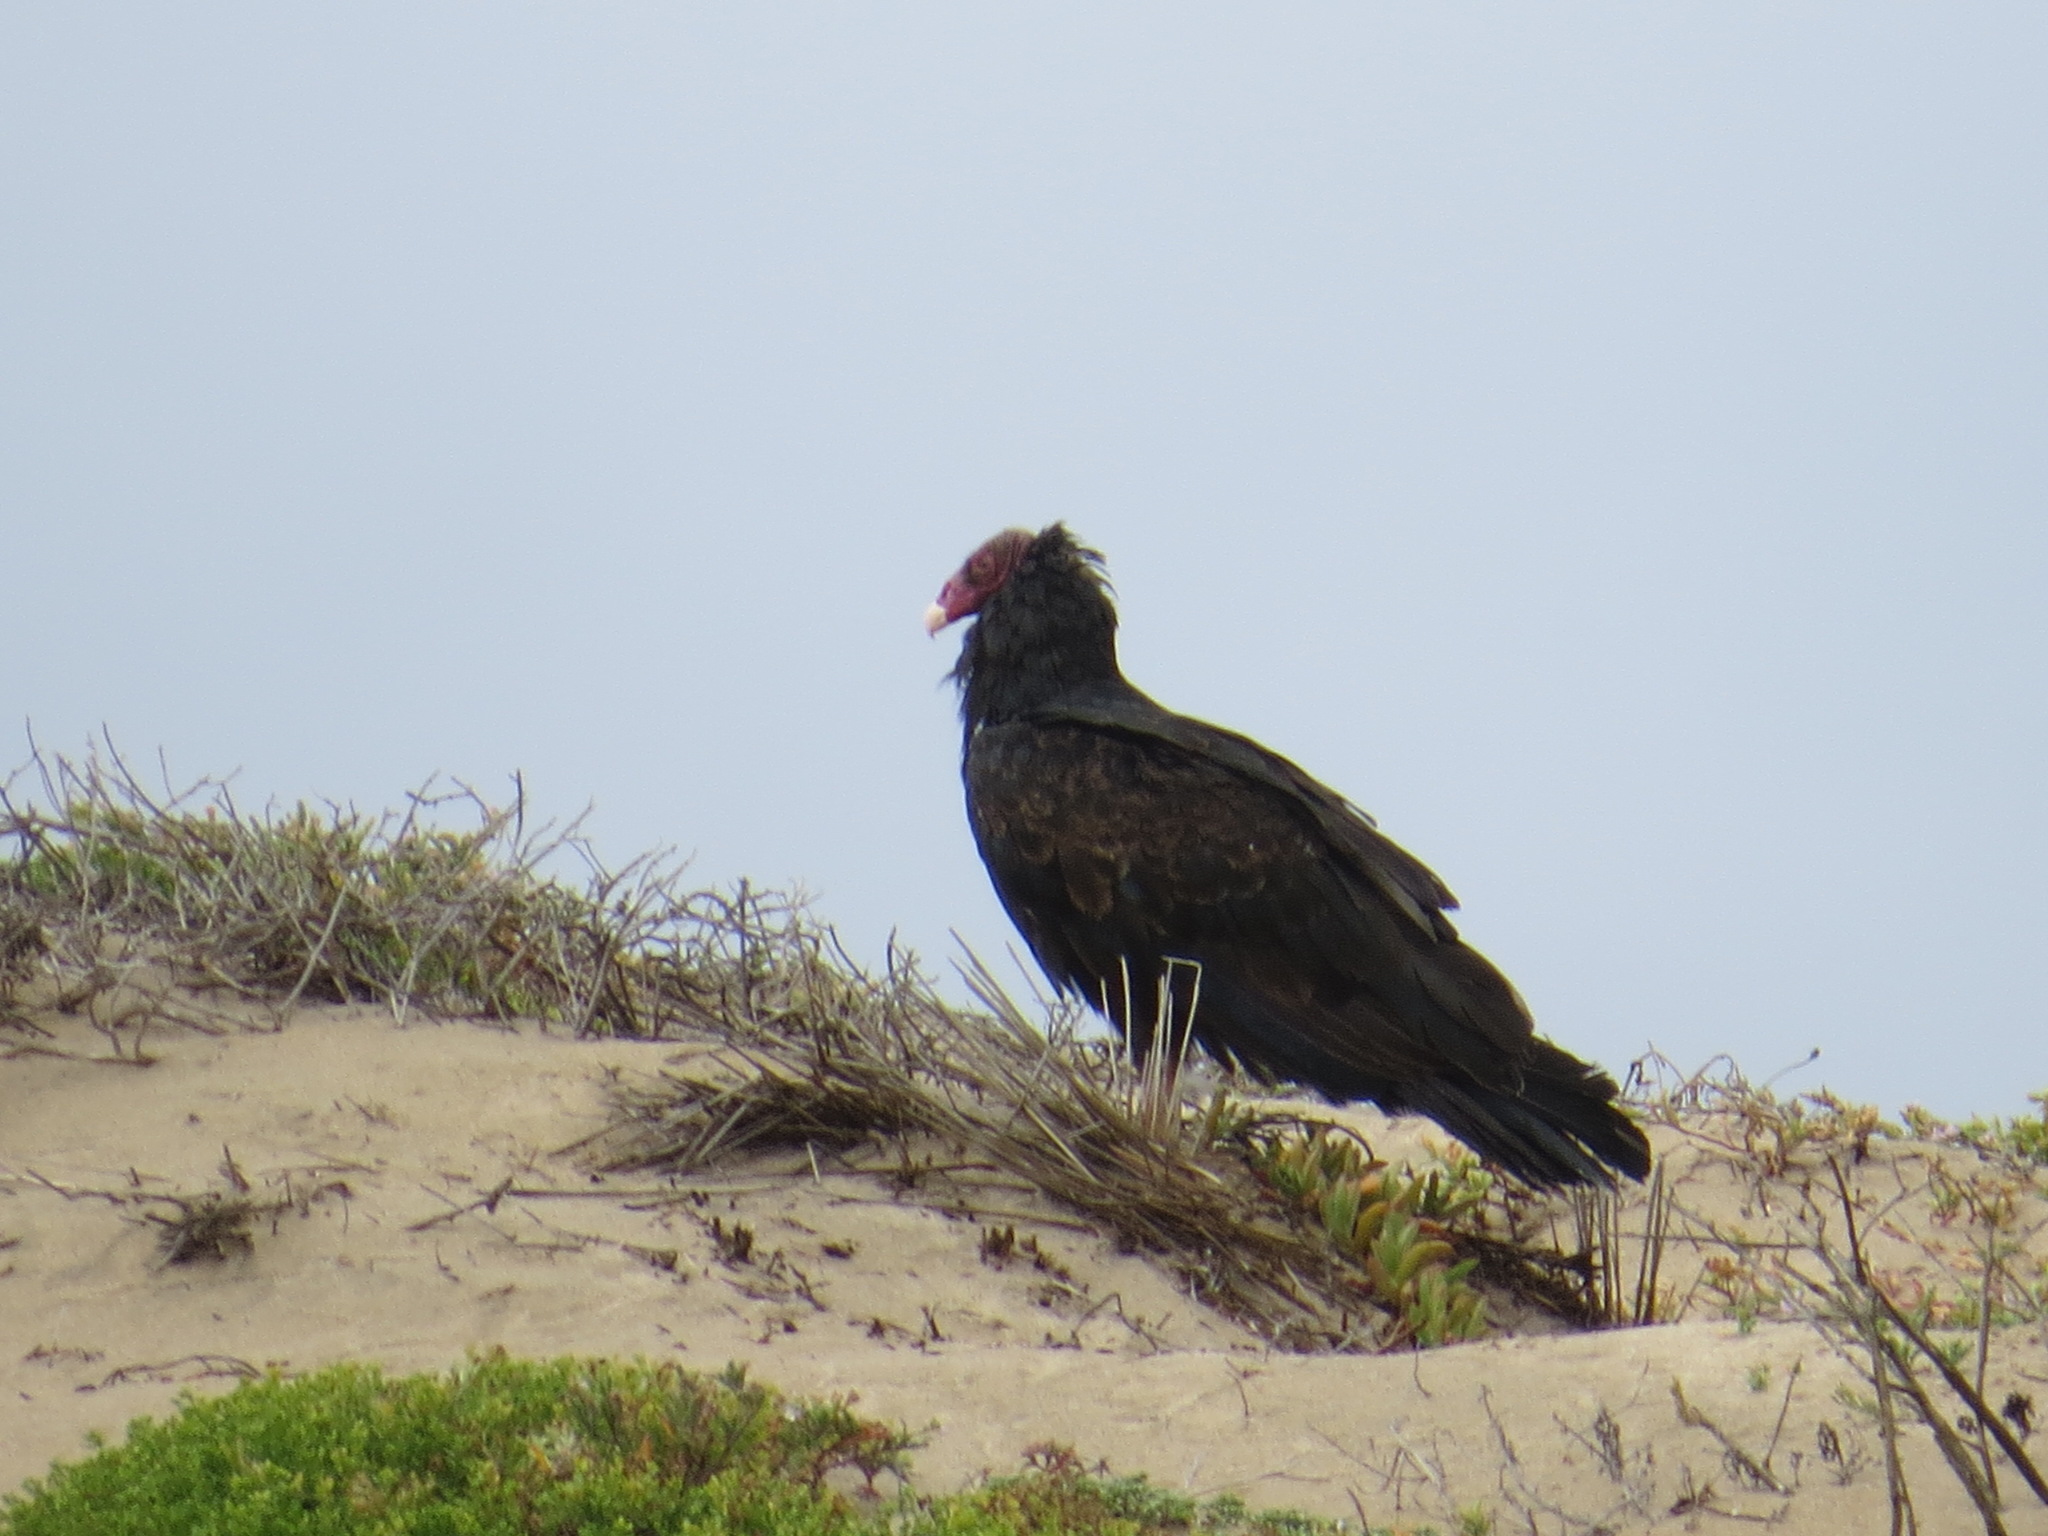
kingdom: Animalia
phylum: Chordata
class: Aves
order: Accipitriformes
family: Cathartidae
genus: Cathartes
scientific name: Cathartes aura
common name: Turkey vulture
